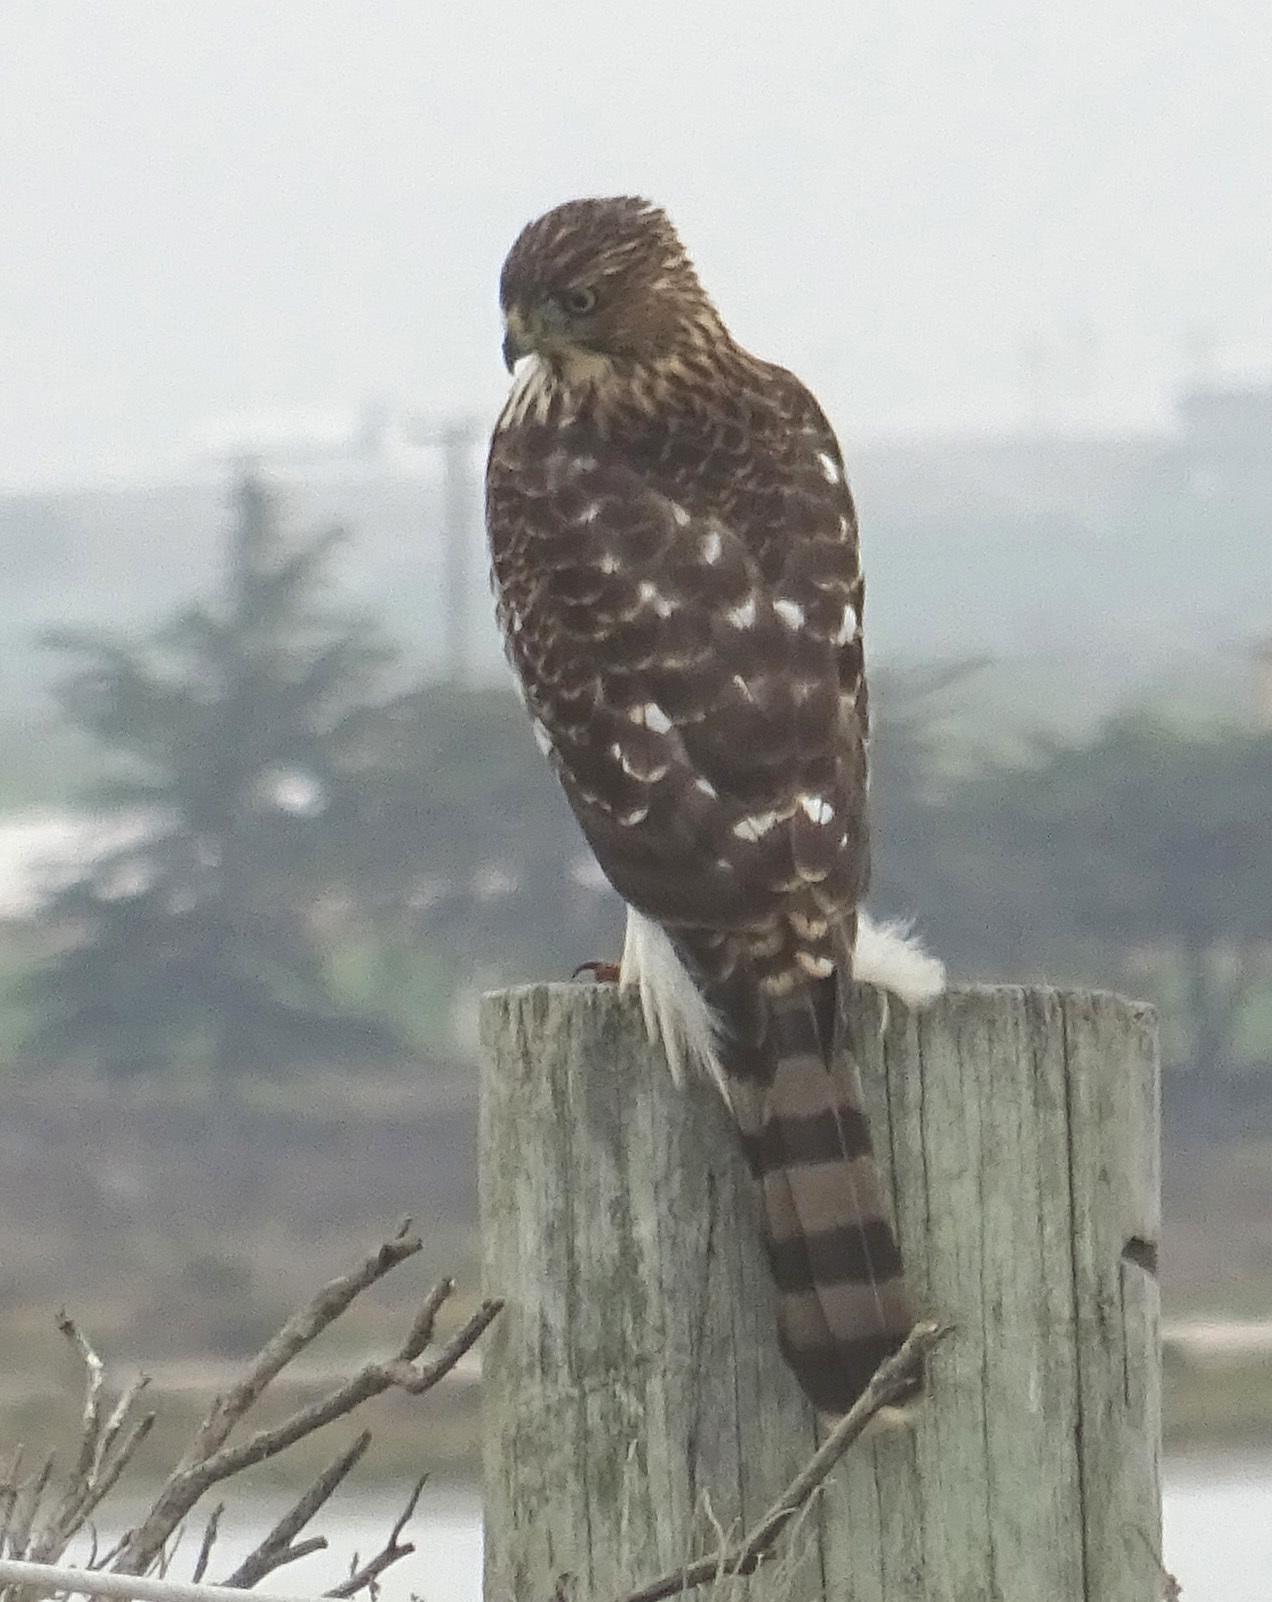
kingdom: Animalia
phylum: Chordata
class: Aves
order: Accipitriformes
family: Accipitridae
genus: Accipiter
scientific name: Accipiter cooperii
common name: Cooper's hawk
